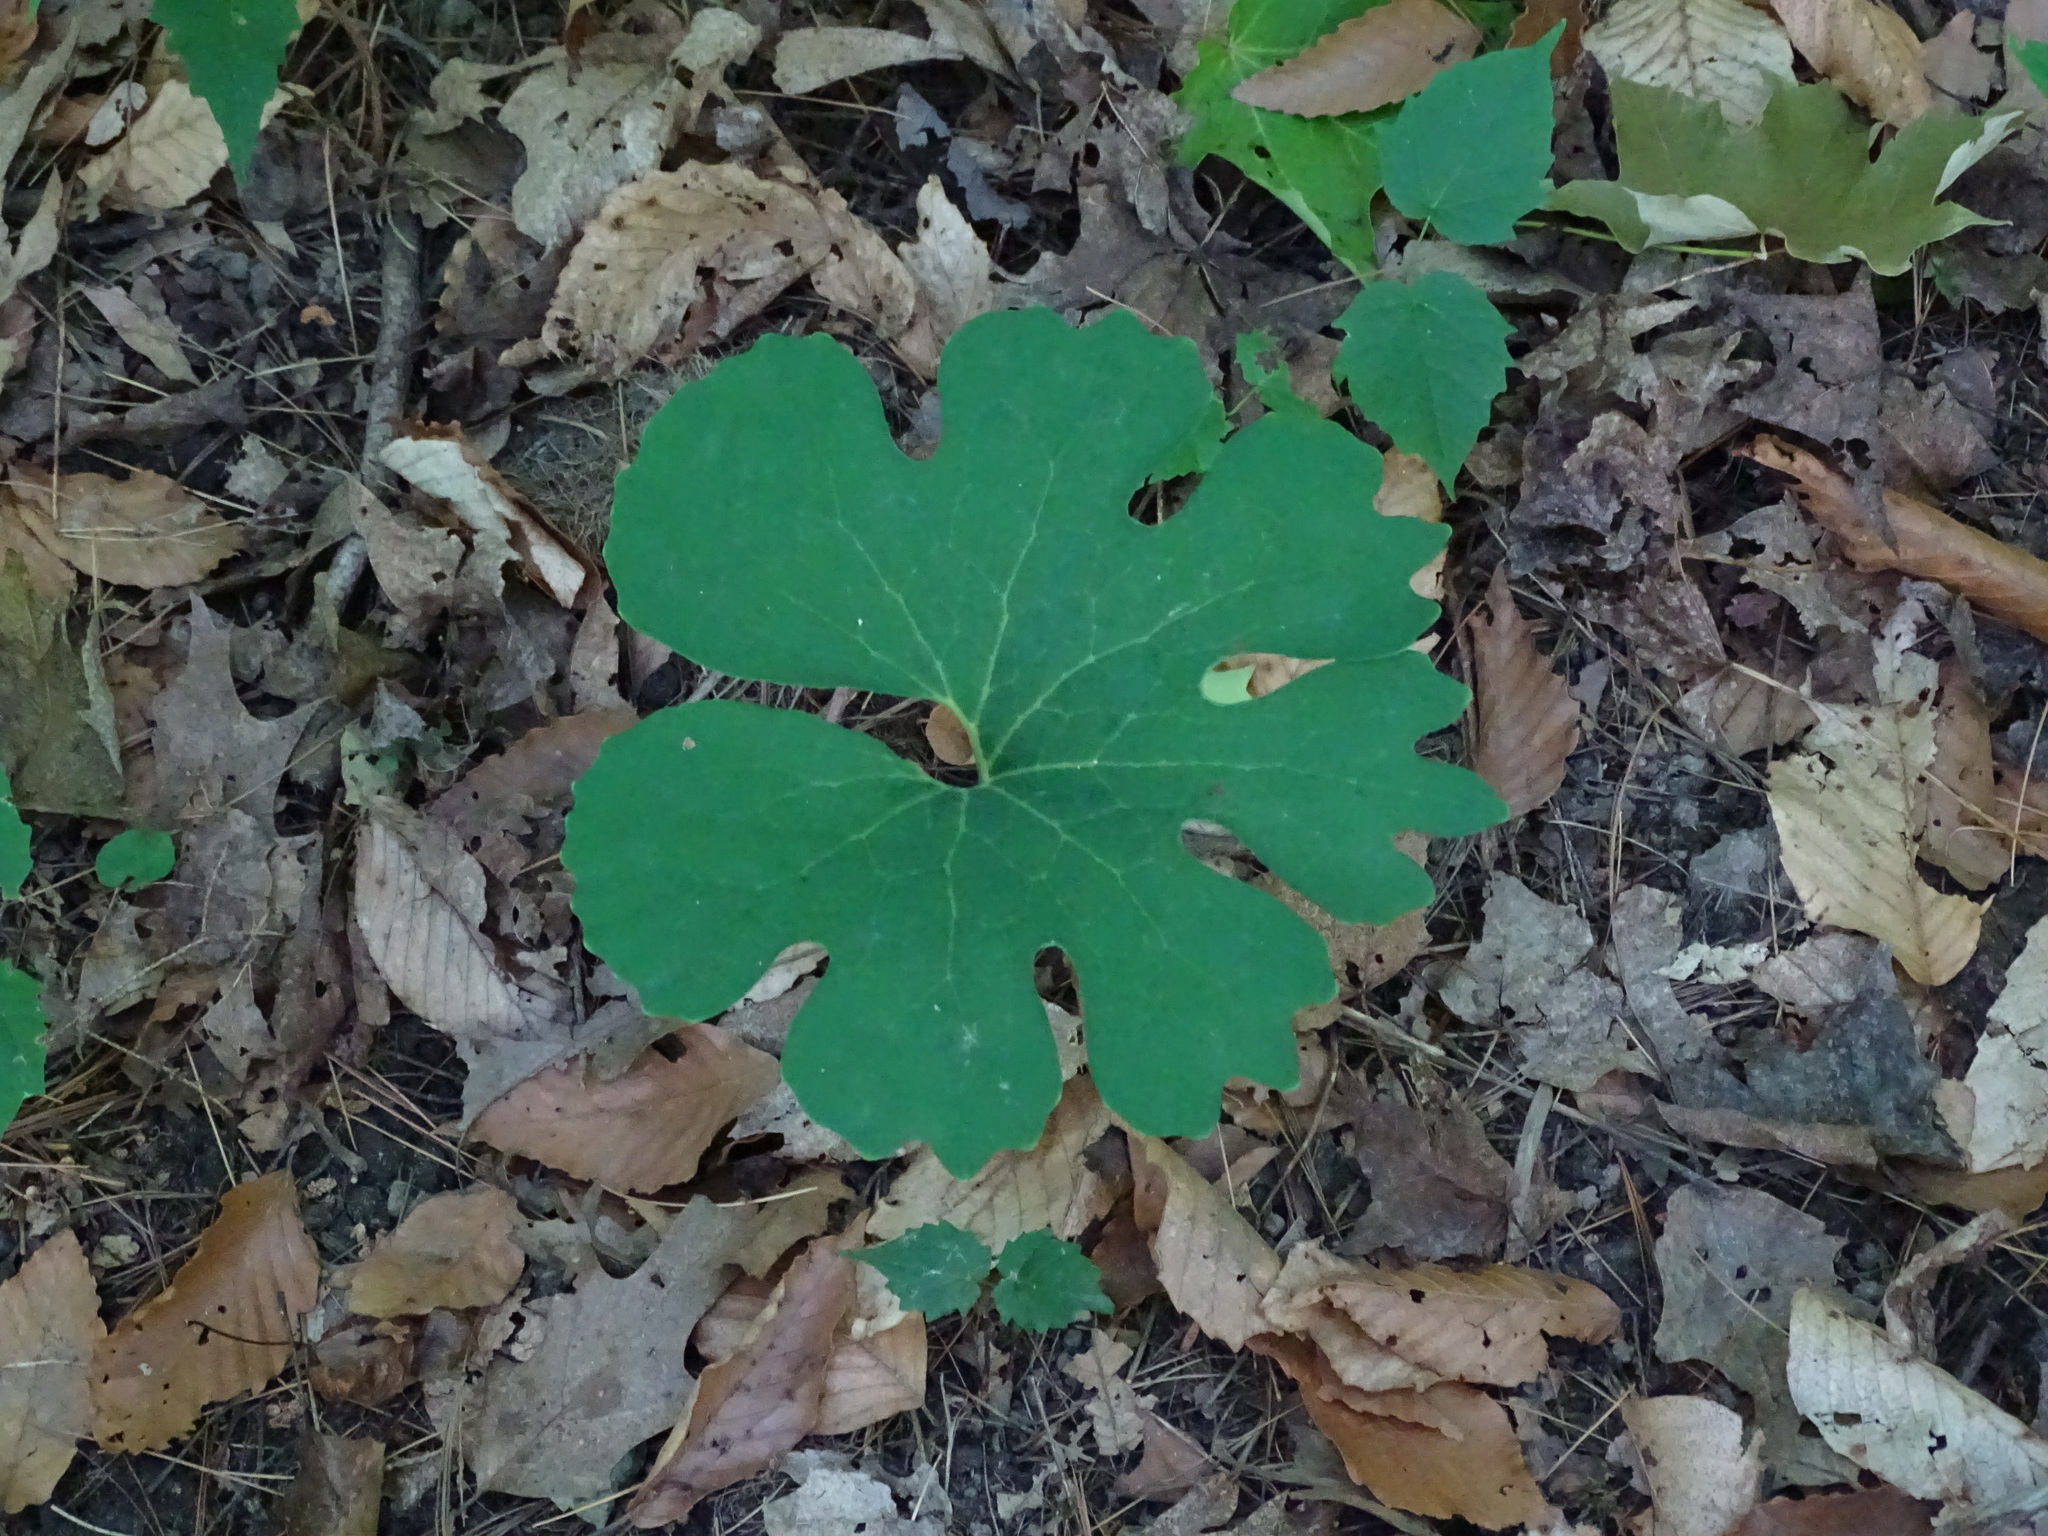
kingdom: Plantae
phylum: Tracheophyta
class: Magnoliopsida
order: Ranunculales
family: Papaveraceae
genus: Sanguinaria
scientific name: Sanguinaria canadensis
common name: Bloodroot
